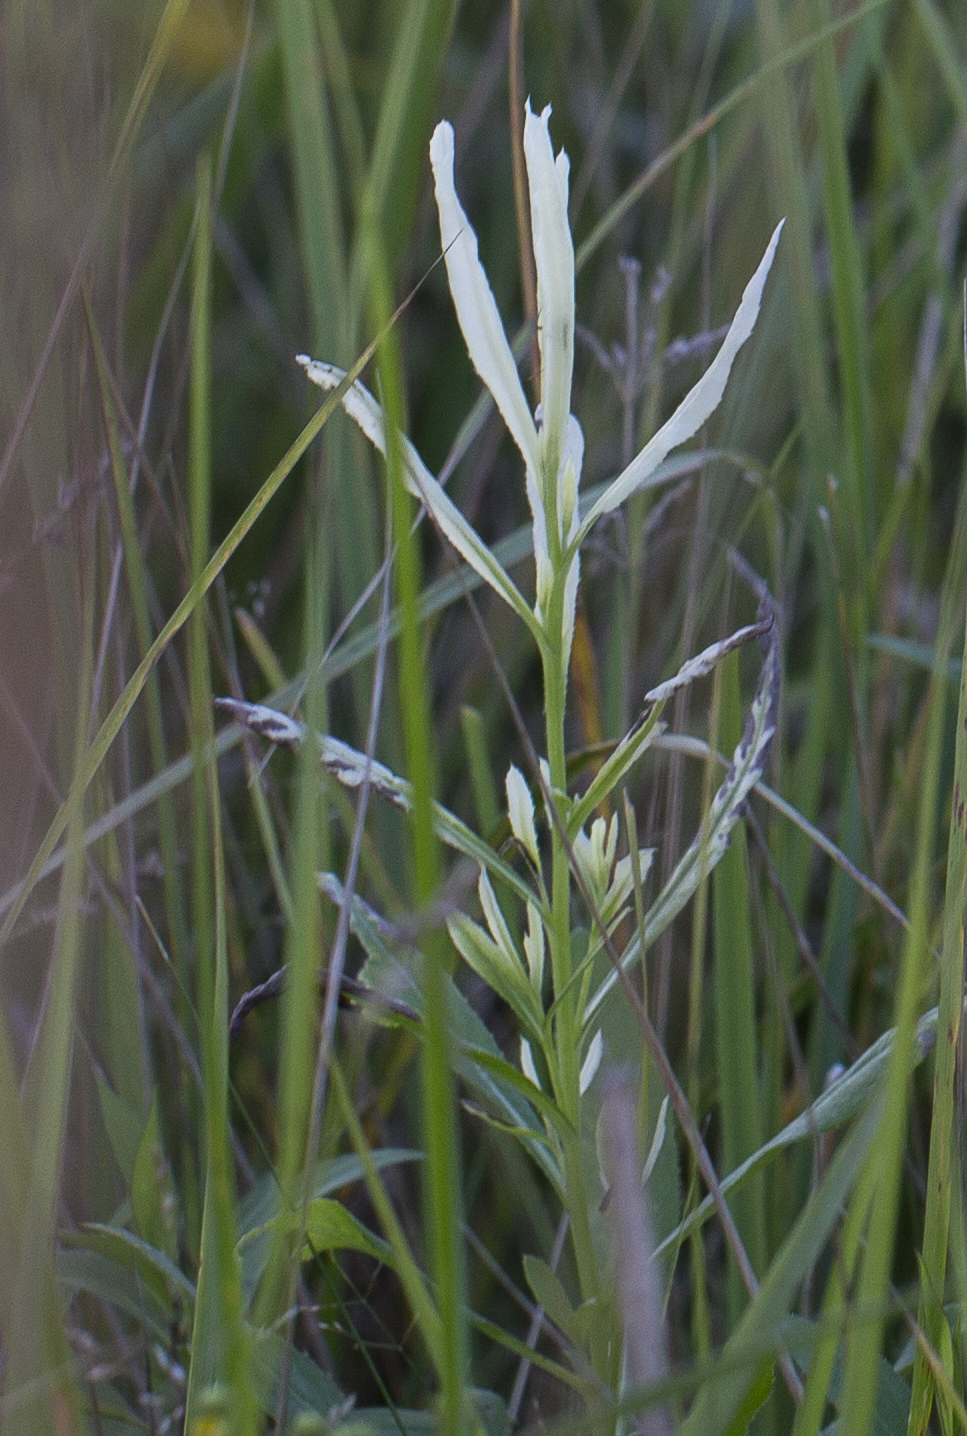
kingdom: Bacteria
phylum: Proteobacteria
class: Gammaproteobacteria
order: Pseudomonadales
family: Pseudomonadaceae
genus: Pseudomonas
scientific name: Pseudomonas syringae
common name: Bacterial speck
